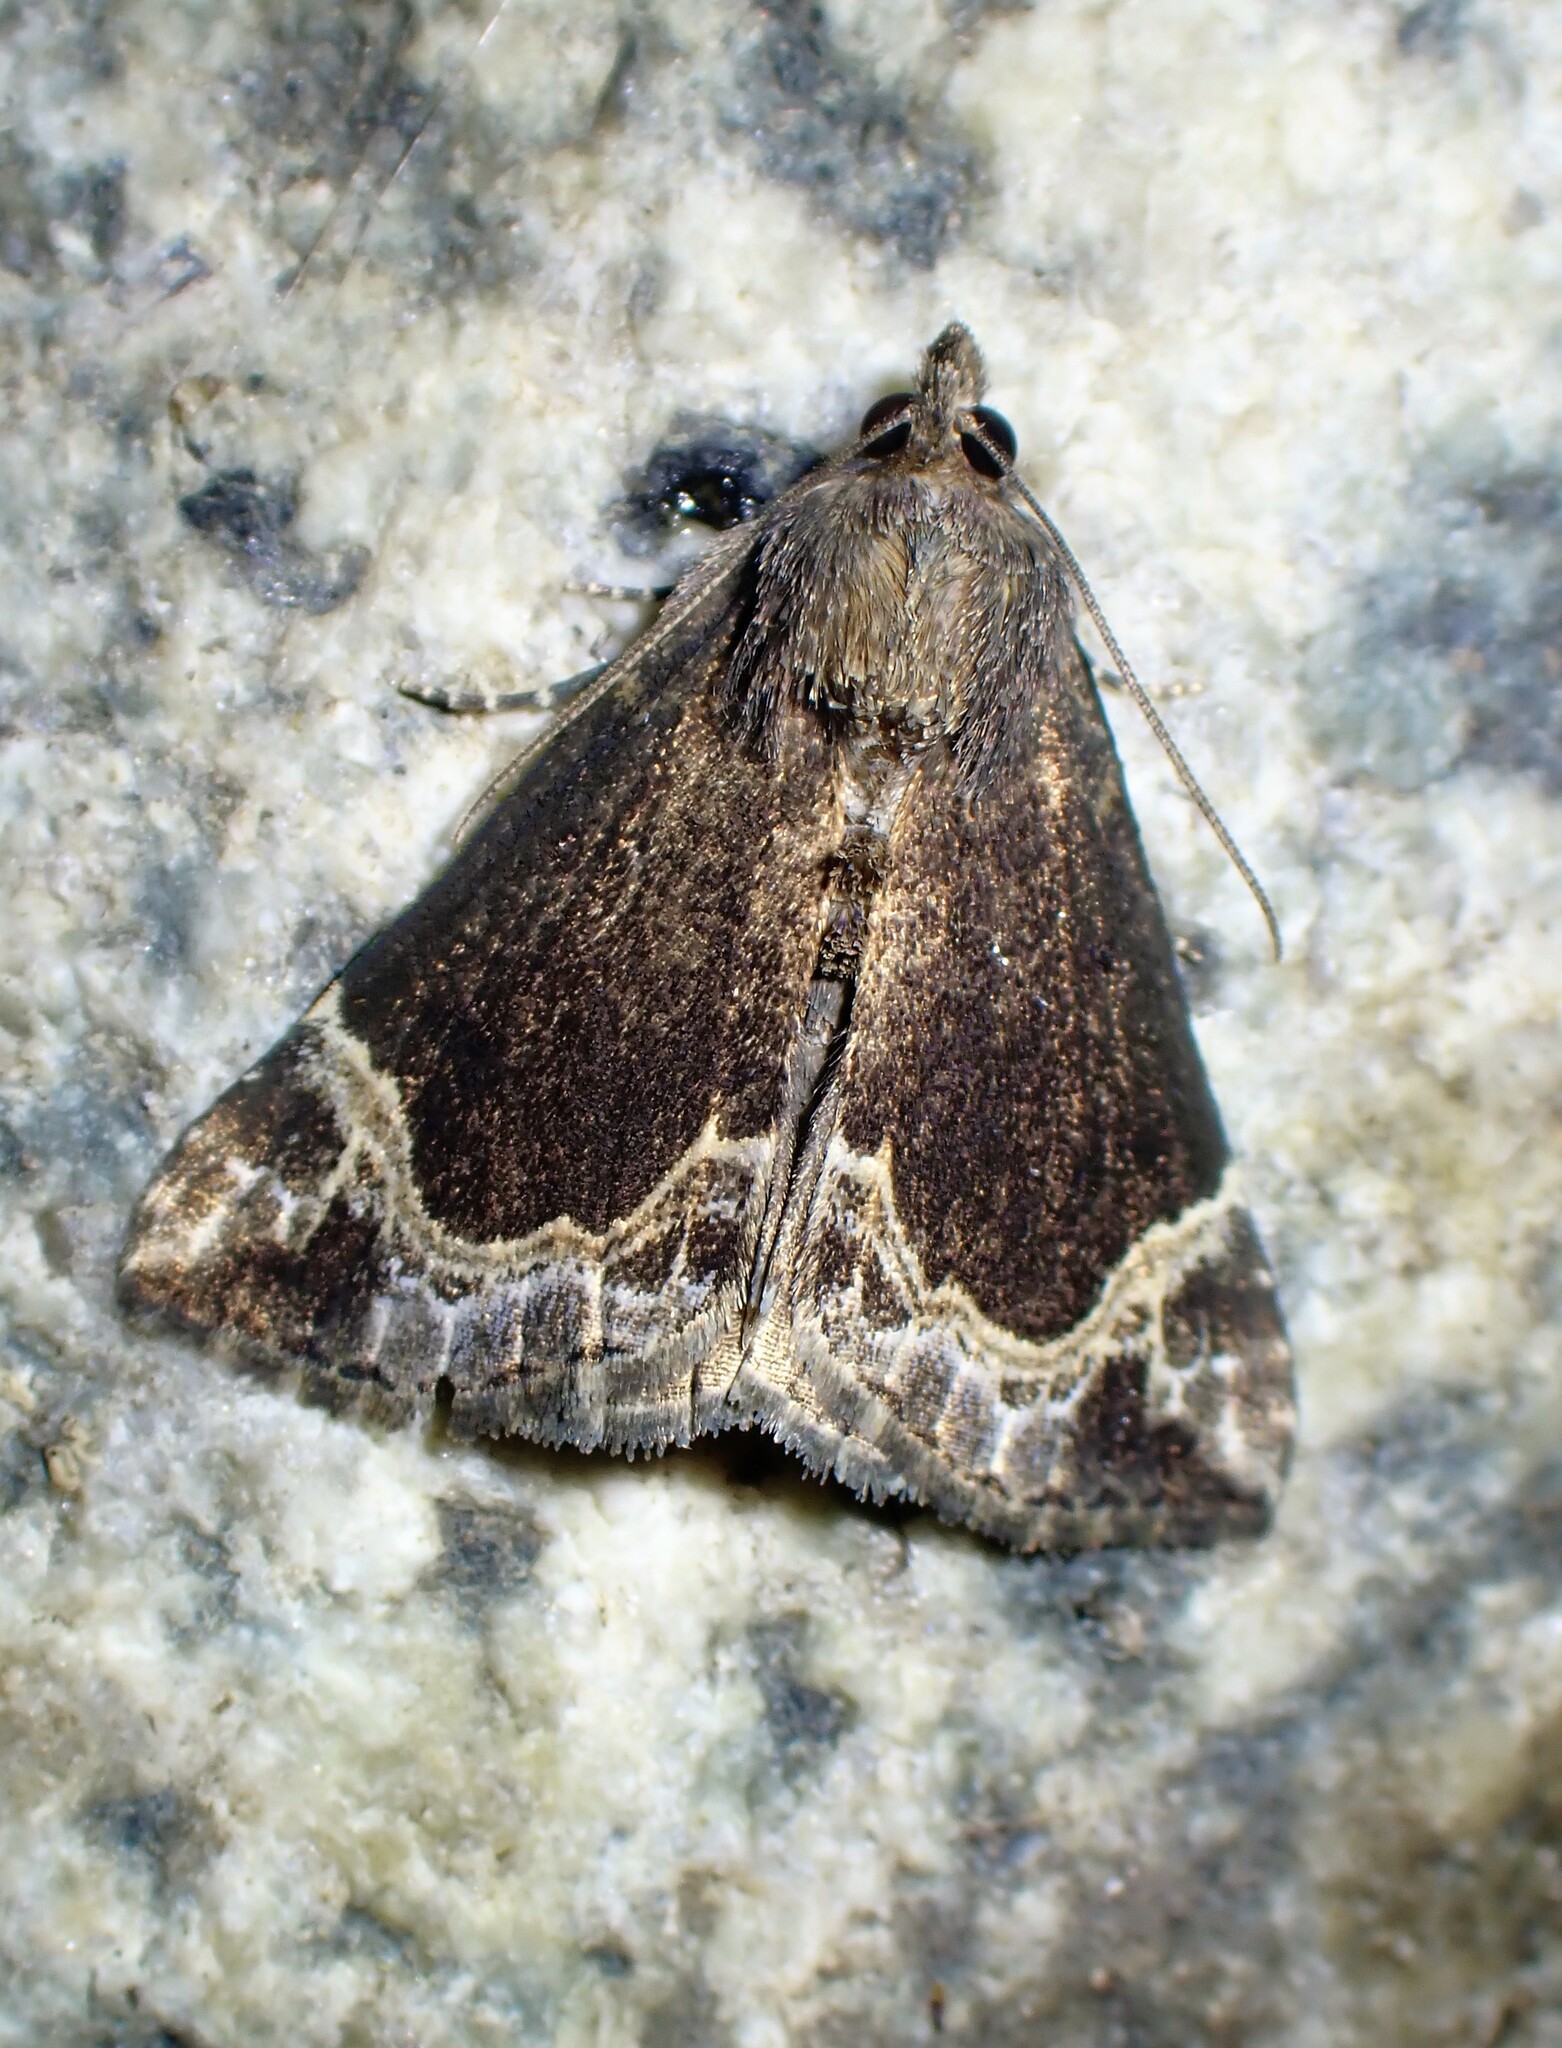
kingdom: Animalia
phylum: Arthropoda
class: Insecta
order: Lepidoptera
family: Erebidae
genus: Hypena
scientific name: Hypena abalienalis
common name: White-lined snout
